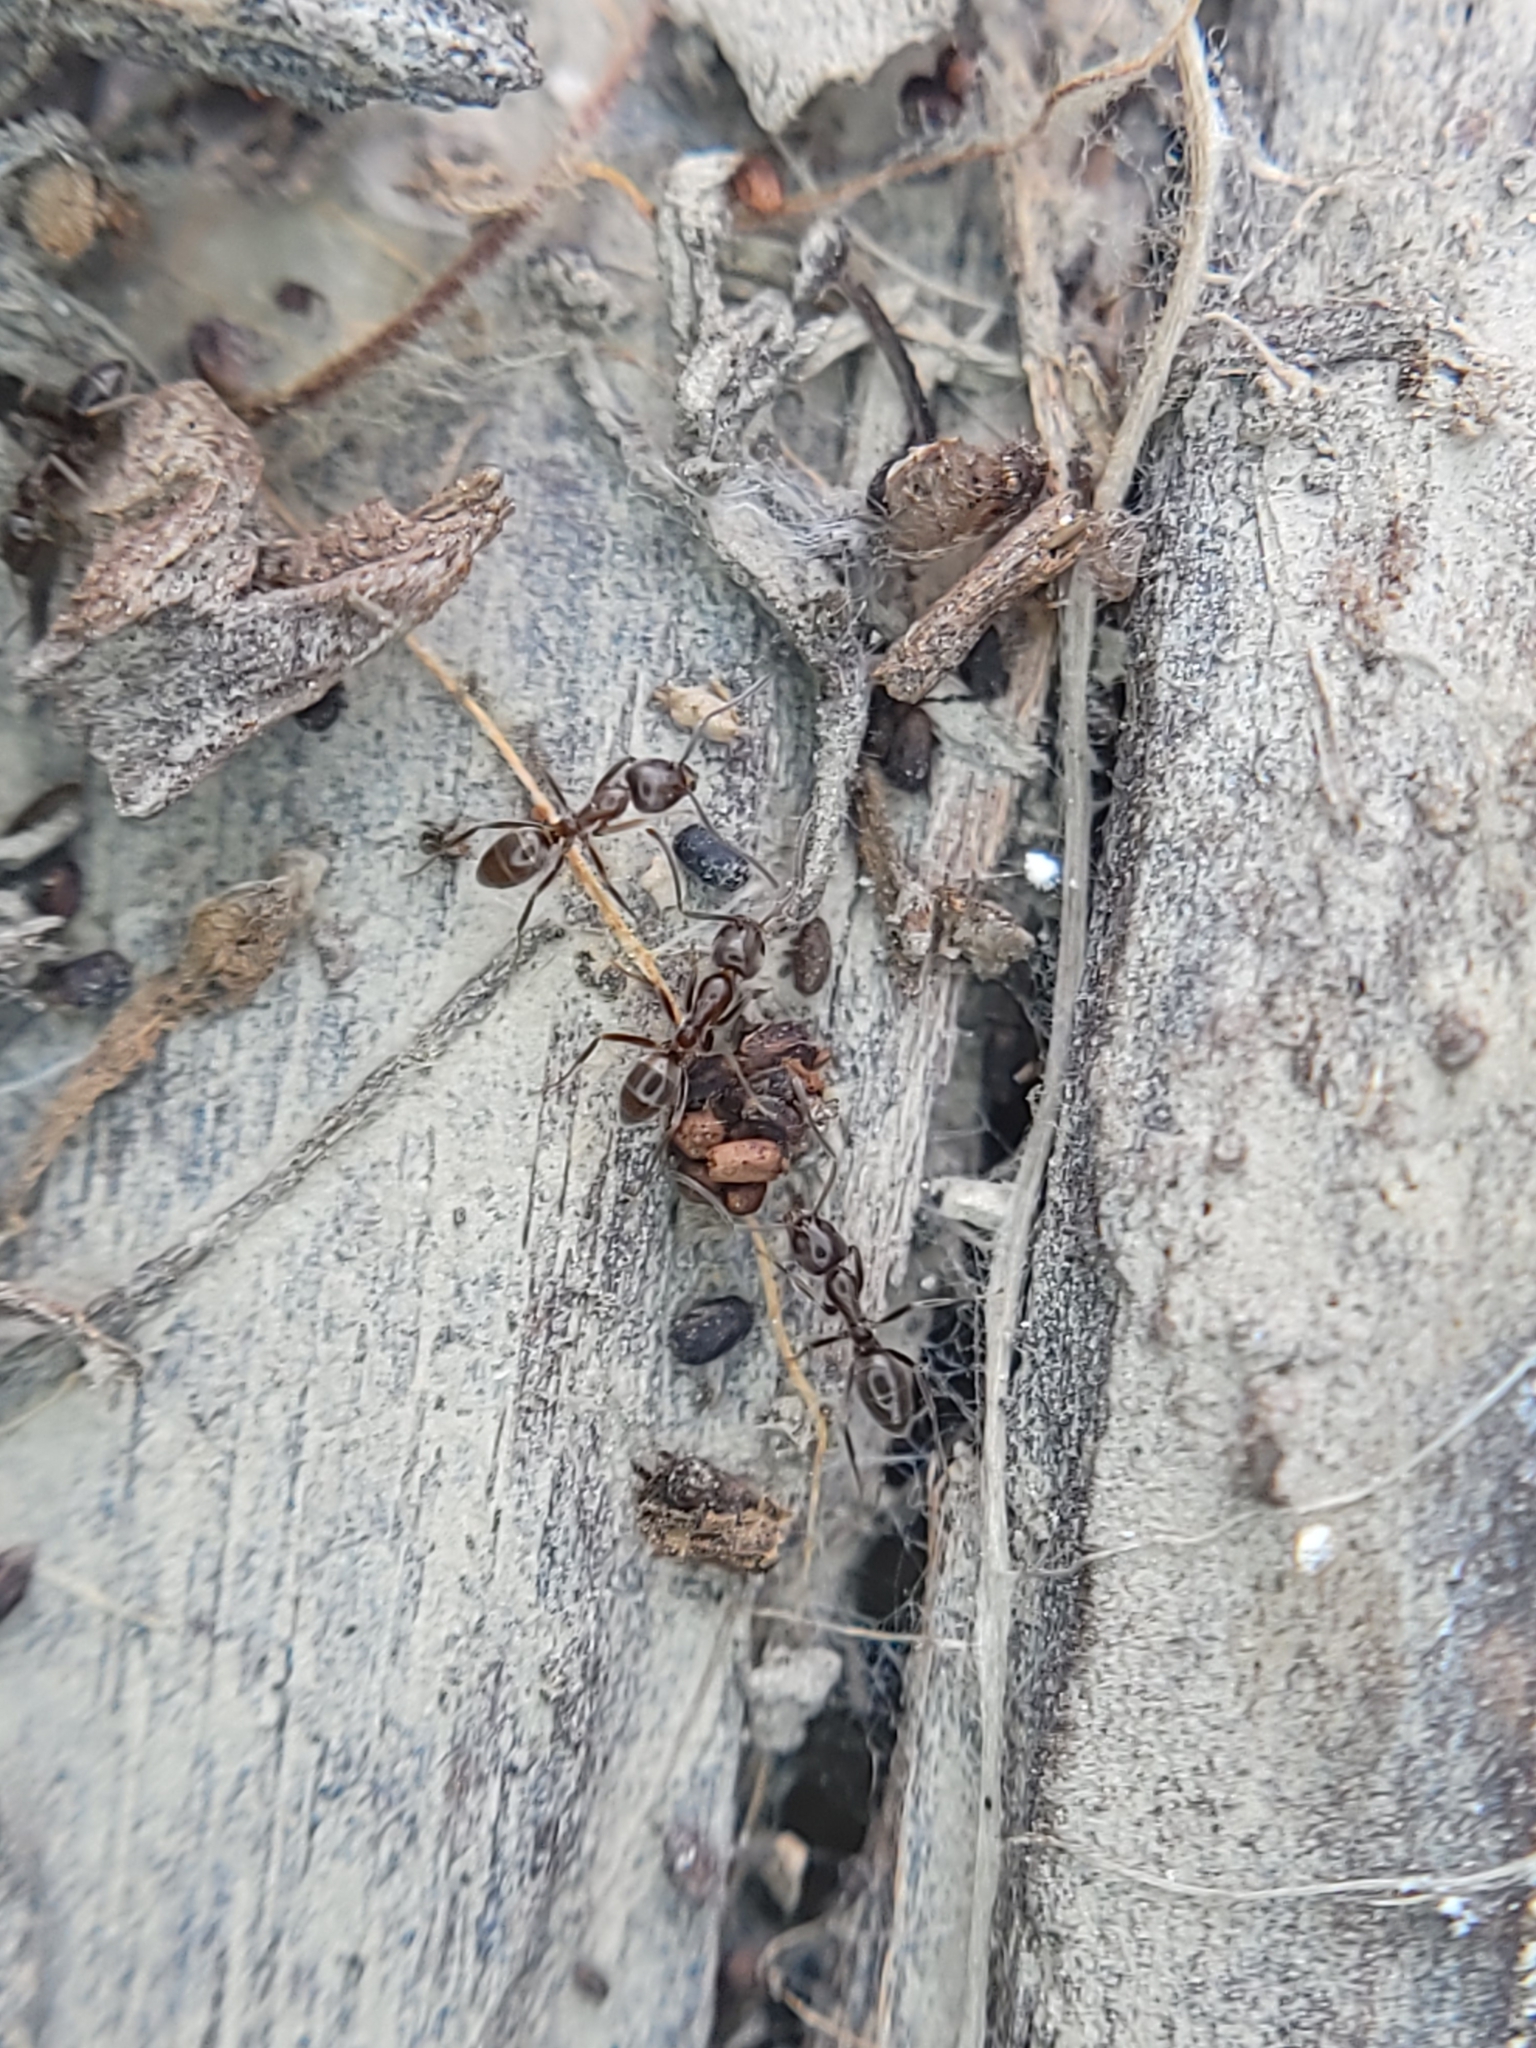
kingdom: Animalia
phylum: Arthropoda
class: Insecta
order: Hymenoptera
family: Formicidae
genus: Linepithema
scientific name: Linepithema humile
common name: Argentine ant
